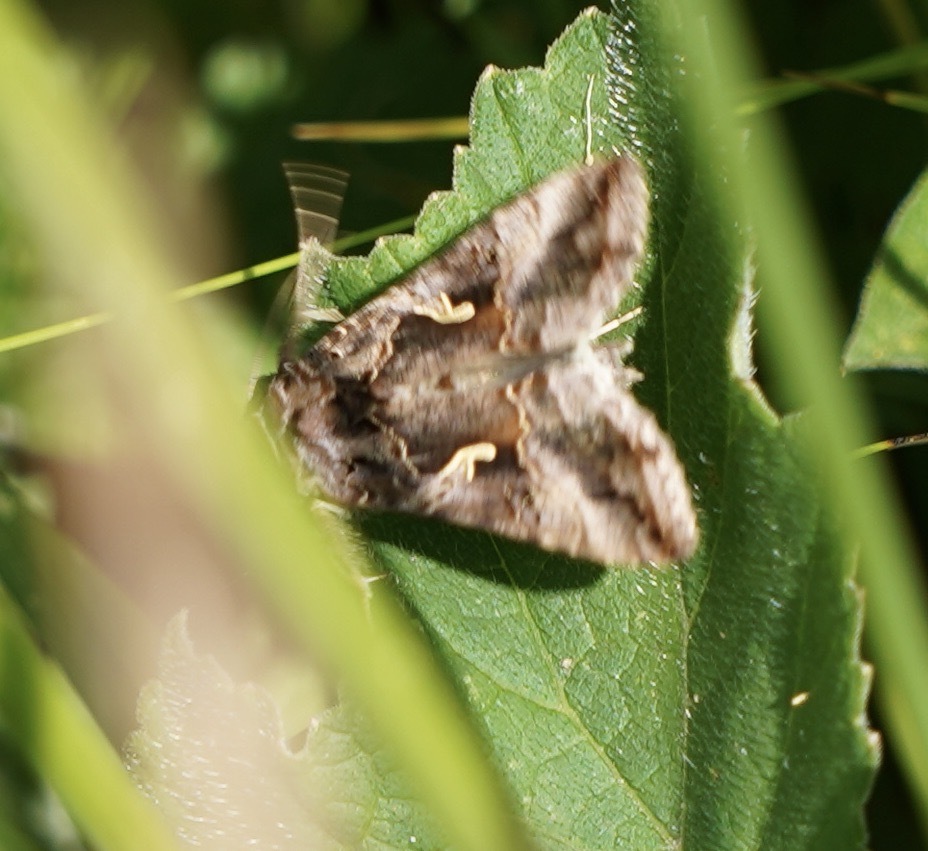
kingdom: Animalia
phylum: Arthropoda
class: Insecta
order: Lepidoptera
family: Noctuidae
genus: Autographa
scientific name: Autographa gamma
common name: Silver y
